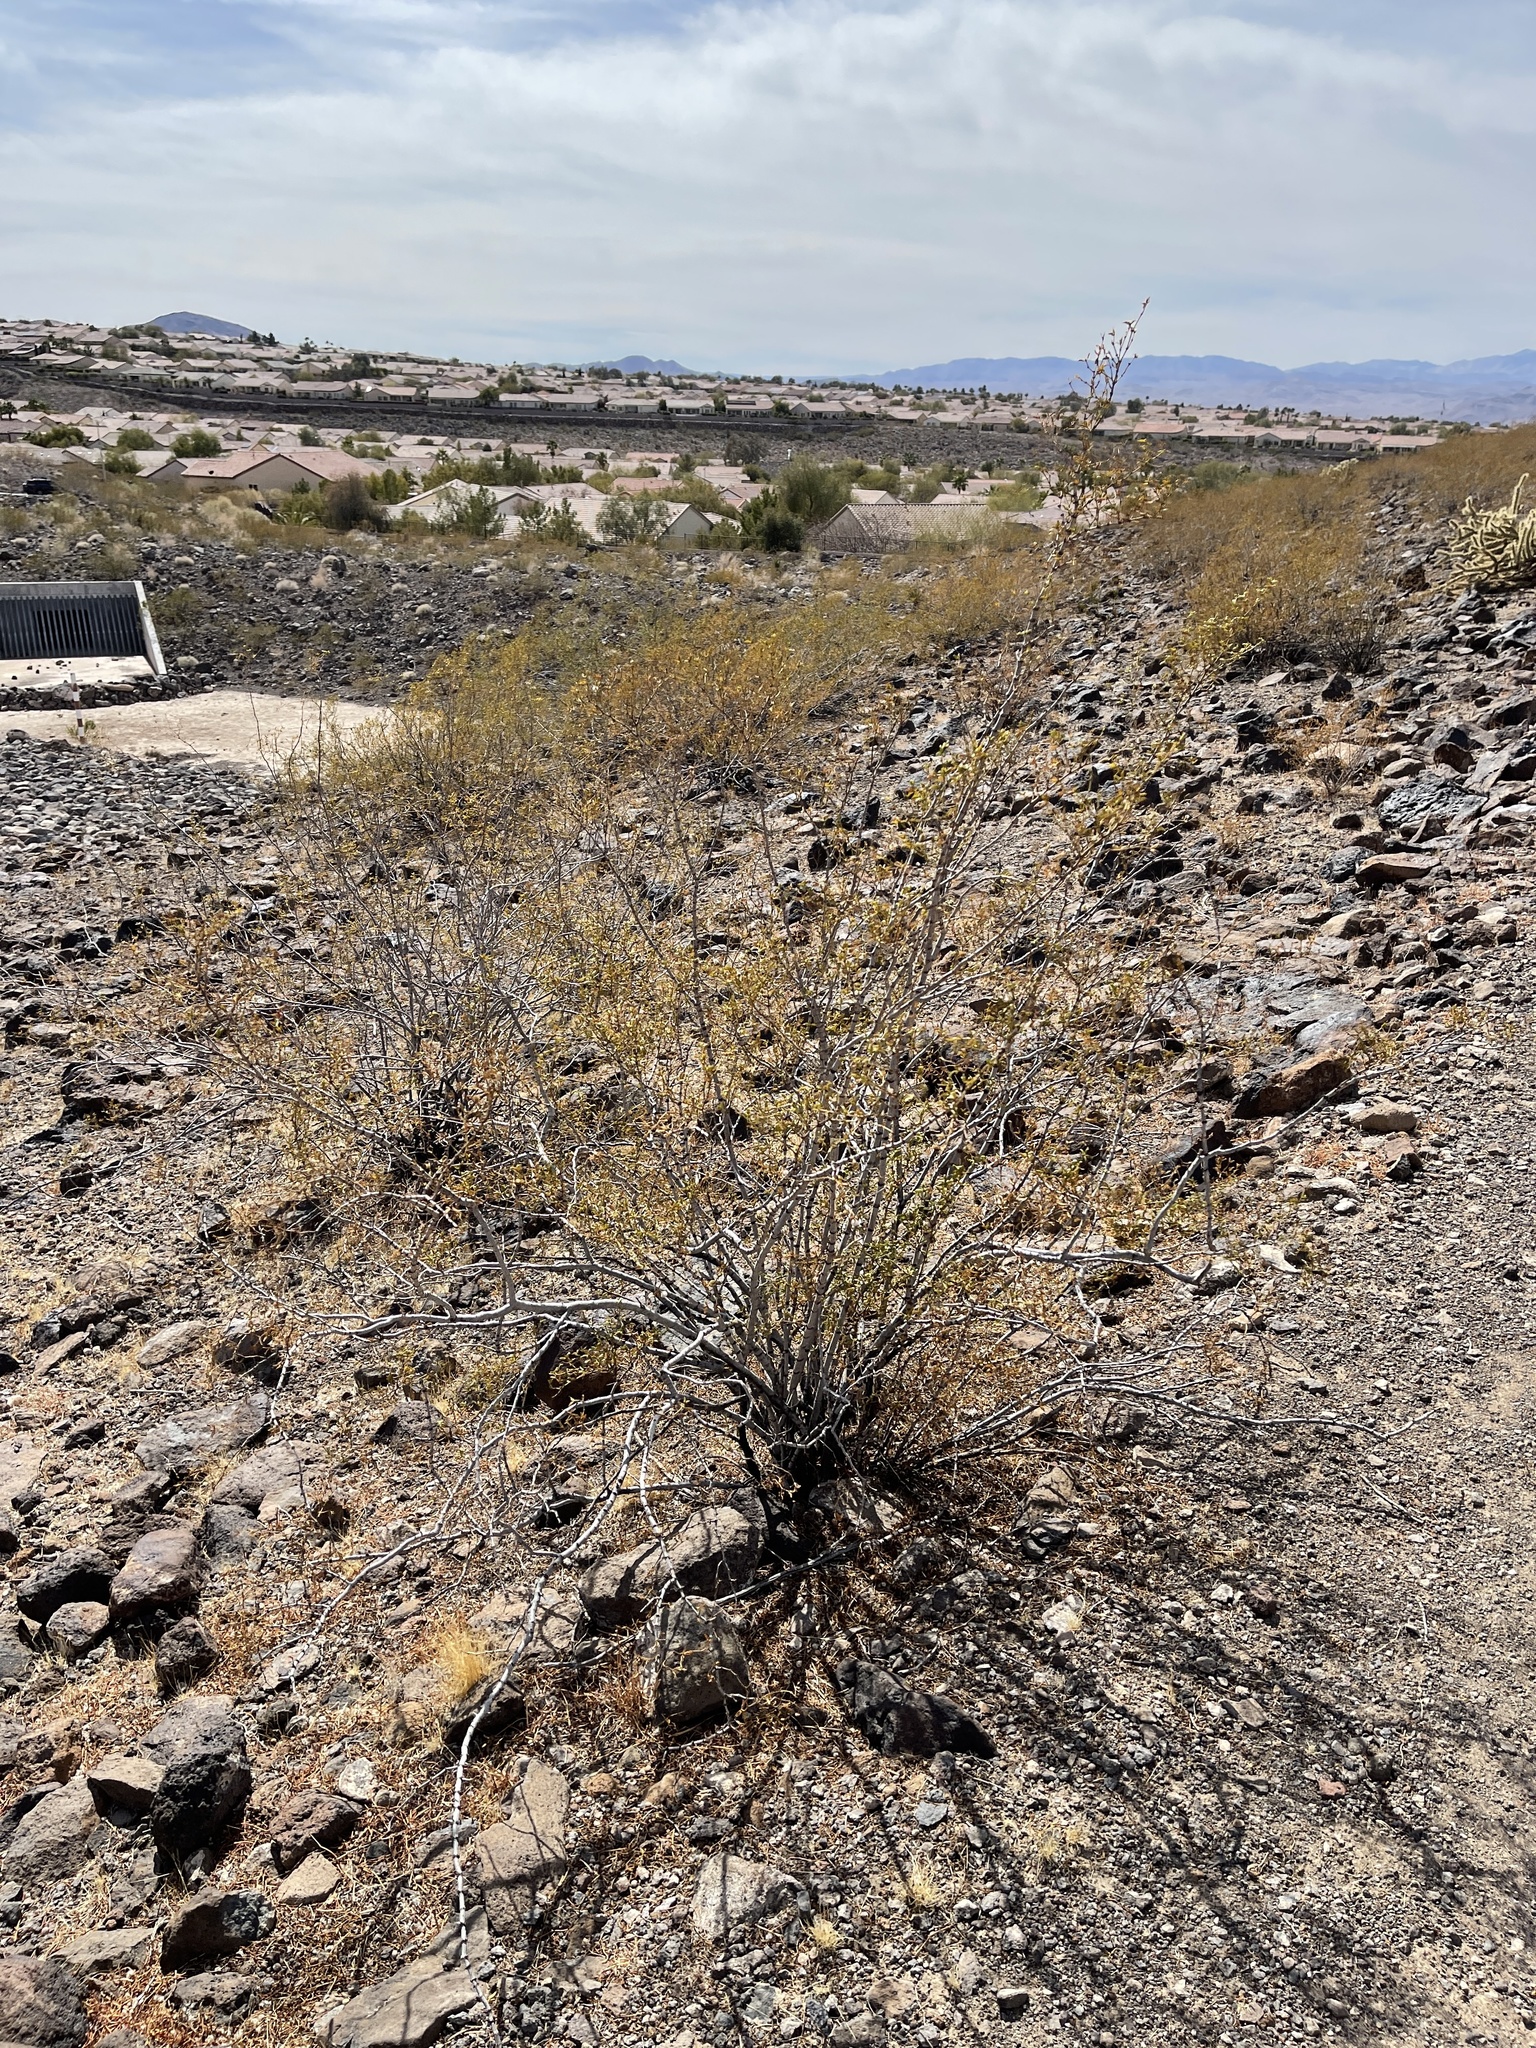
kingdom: Plantae
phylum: Tracheophyta
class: Magnoliopsida
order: Zygophyllales
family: Zygophyllaceae
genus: Larrea
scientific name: Larrea tridentata
